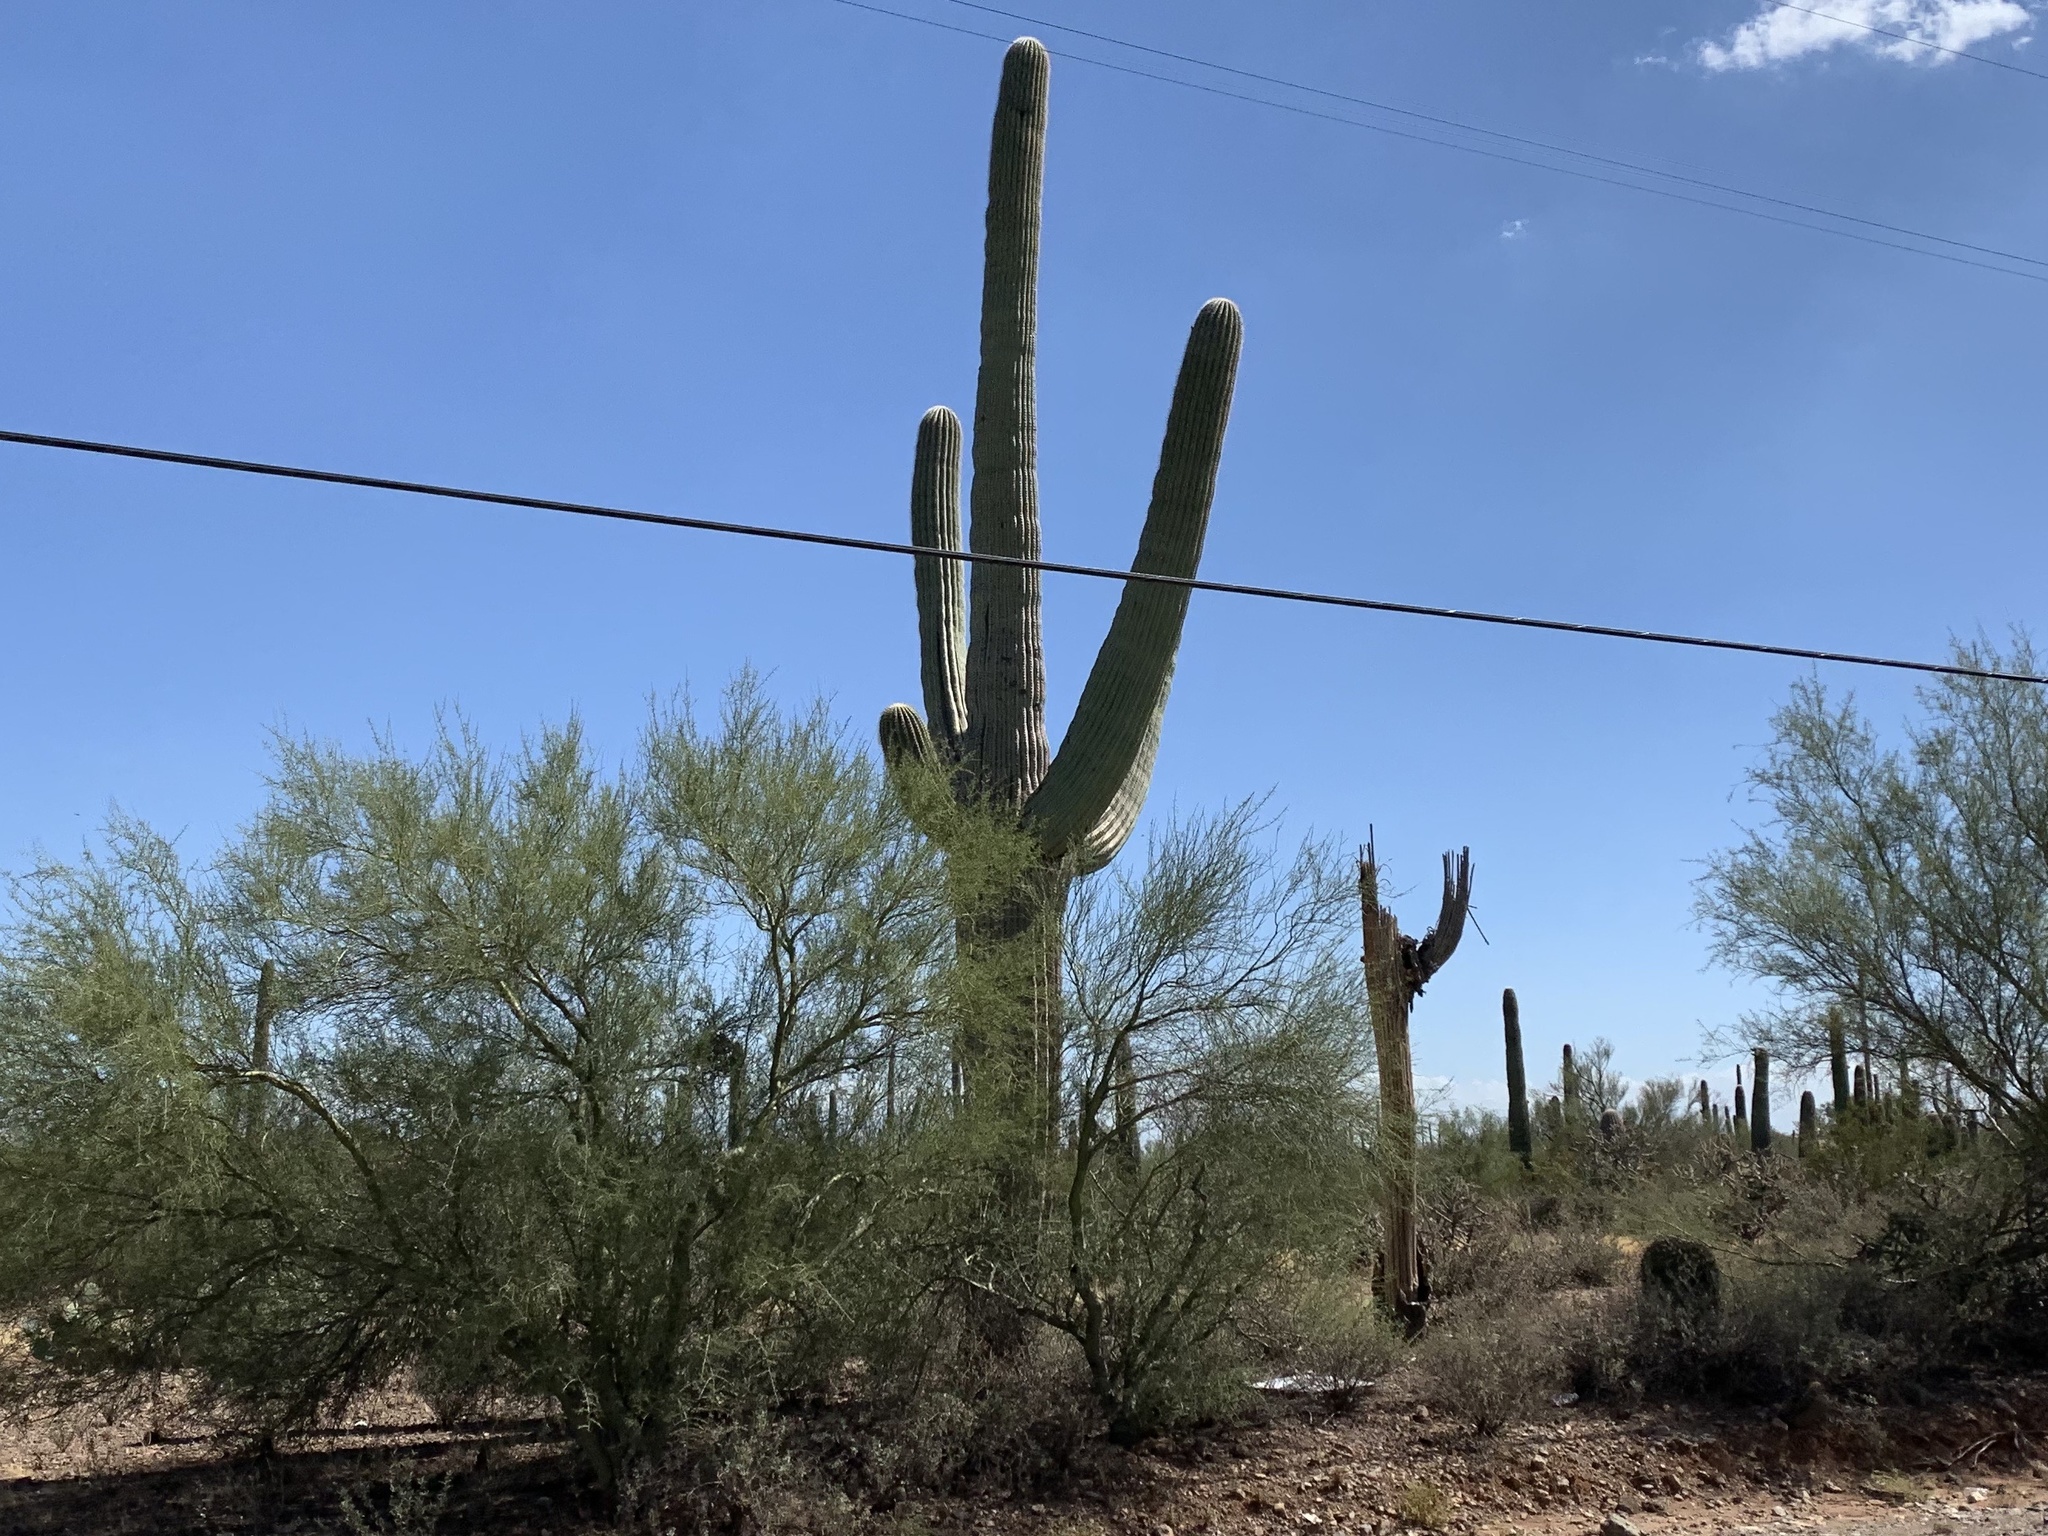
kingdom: Plantae
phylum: Tracheophyta
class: Magnoliopsida
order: Caryophyllales
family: Cactaceae
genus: Carnegiea
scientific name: Carnegiea gigantea
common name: Saguaro
